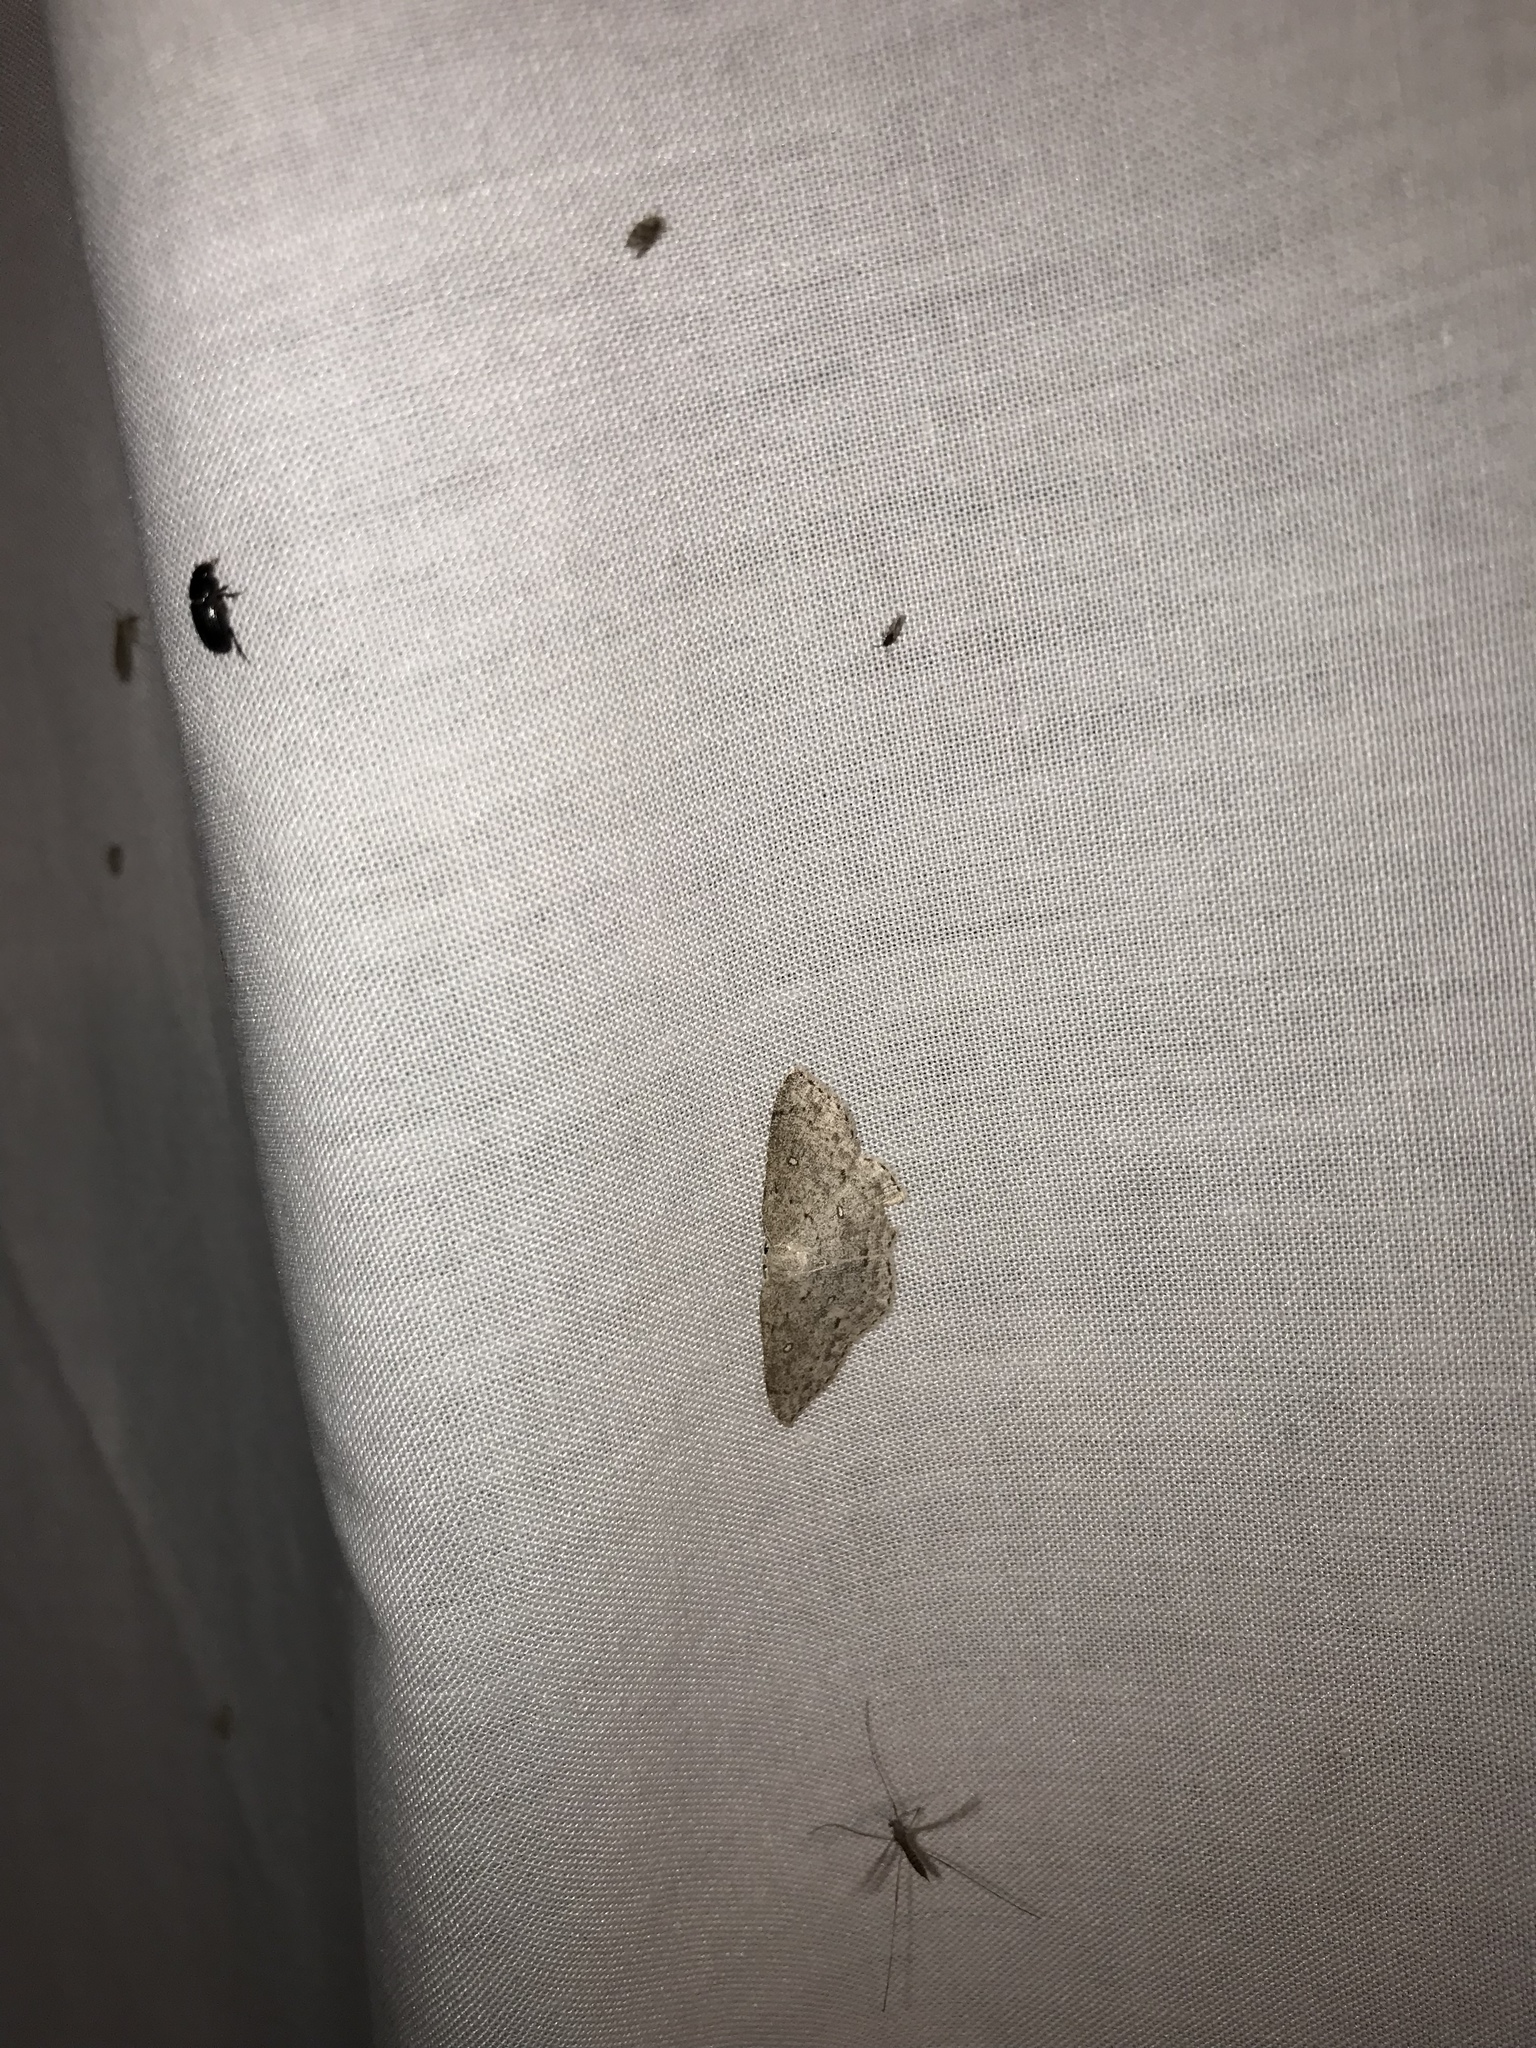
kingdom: Animalia
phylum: Arthropoda
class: Insecta
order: Lepidoptera
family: Geometridae
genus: Cyclophora
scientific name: Cyclophora pendulinaria
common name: Sweet fern geometer
